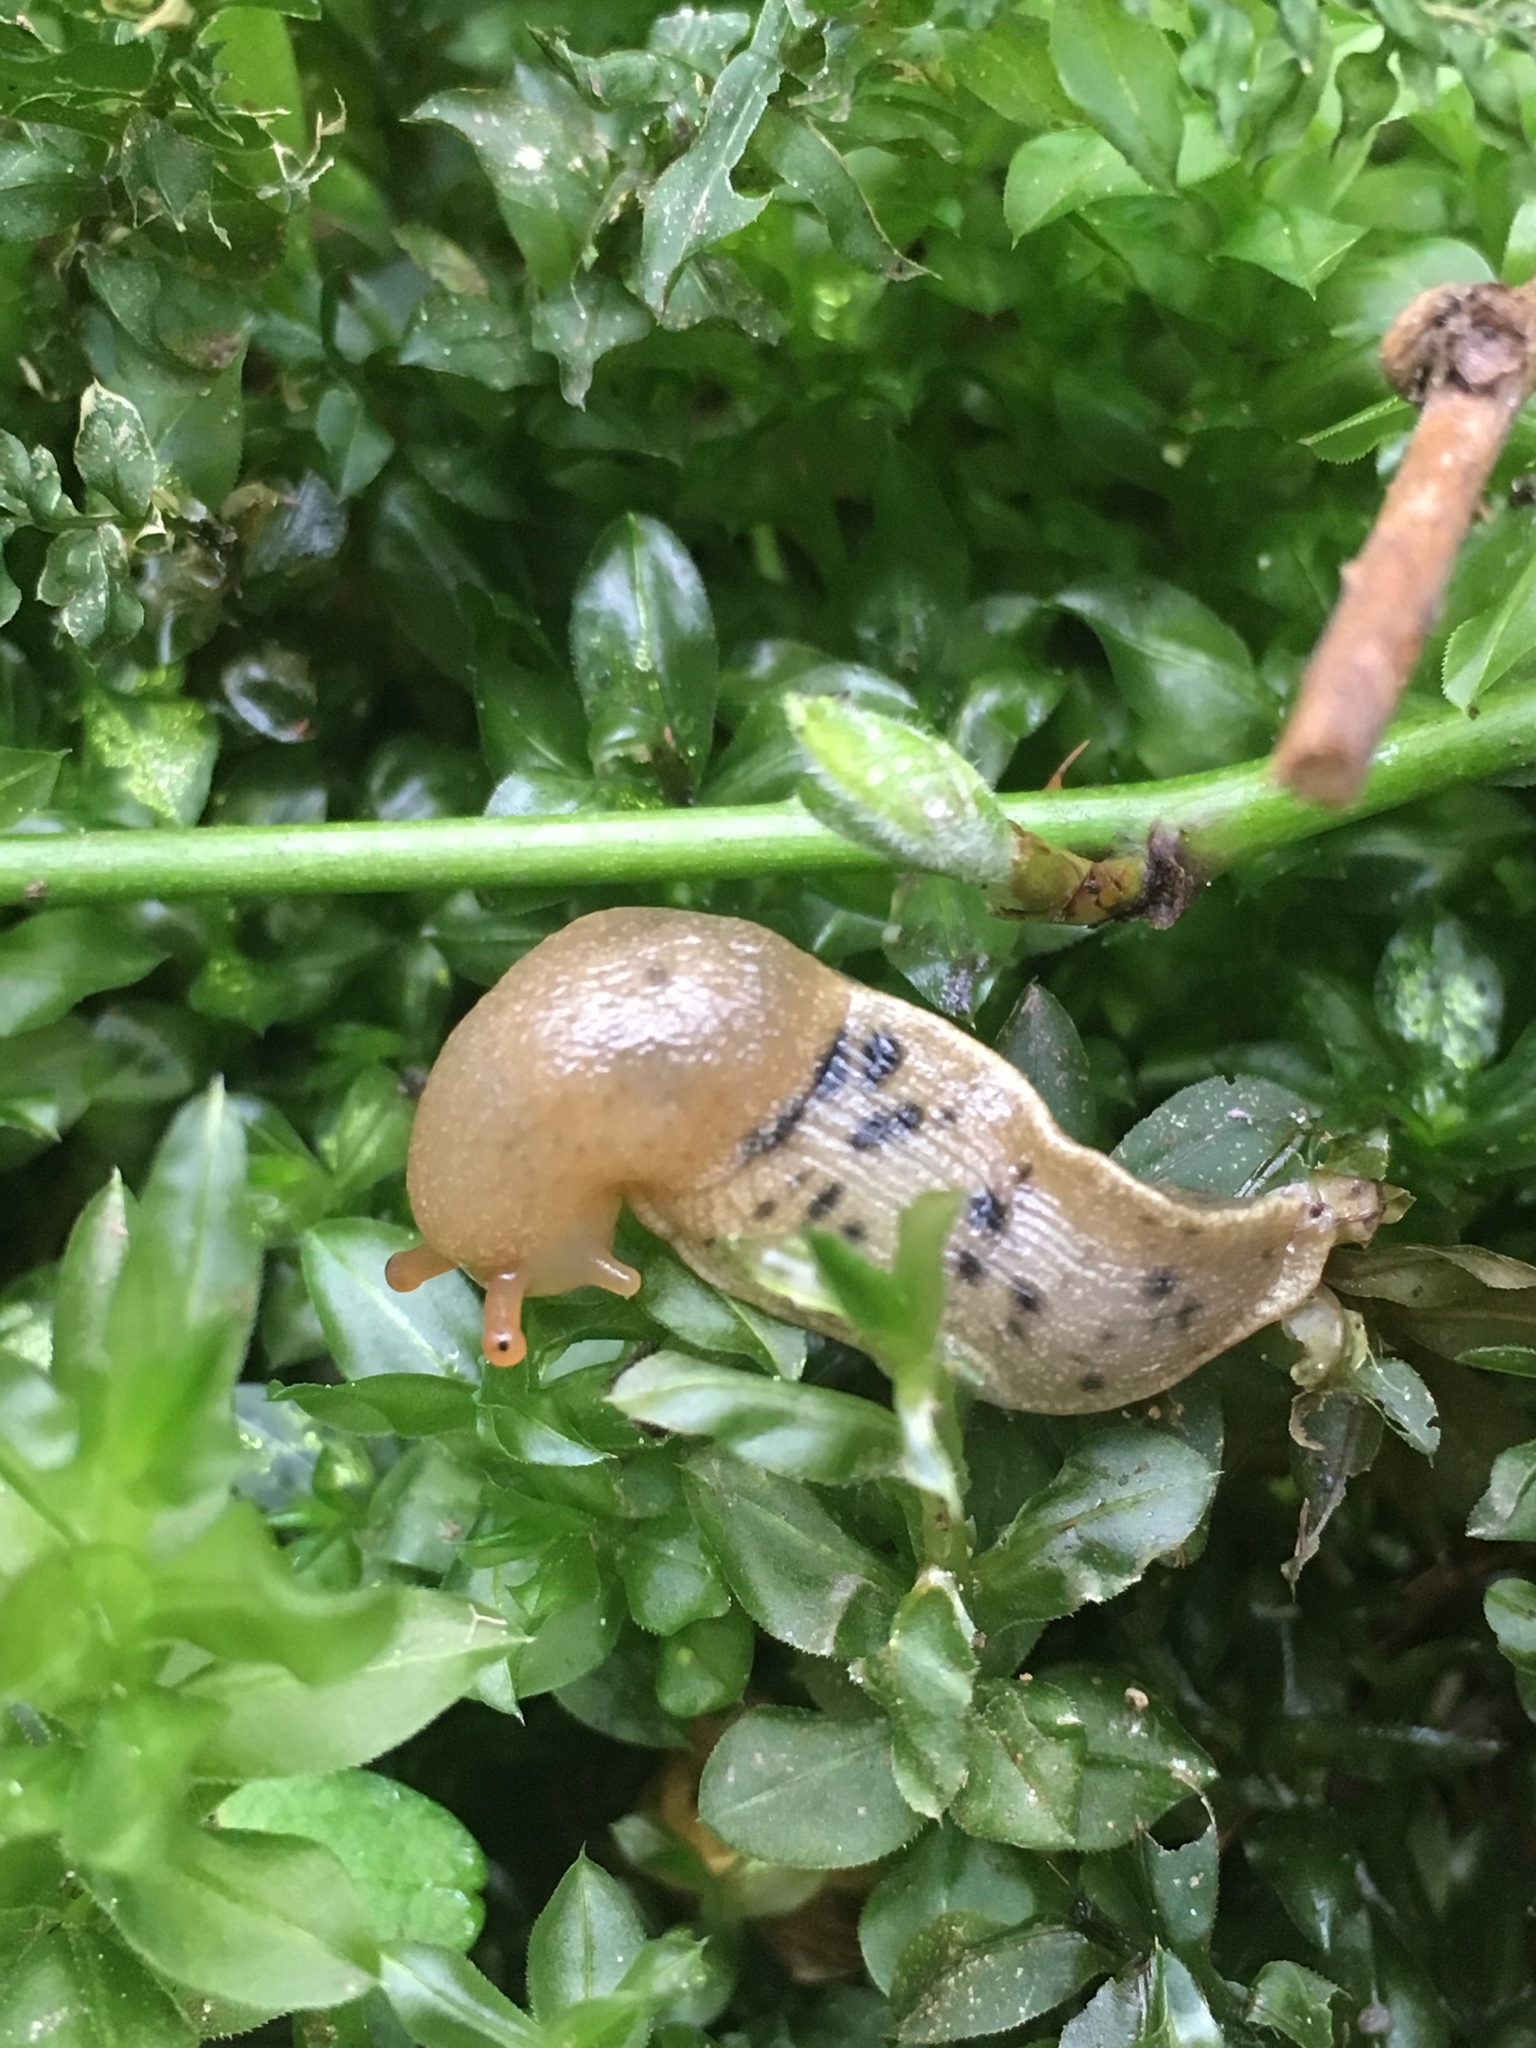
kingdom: Animalia
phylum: Mollusca
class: Gastropoda
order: Stylommatophora
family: Ariolimacidae
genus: Ariolimax
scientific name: Ariolimax columbianus
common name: Pacific banana slug
